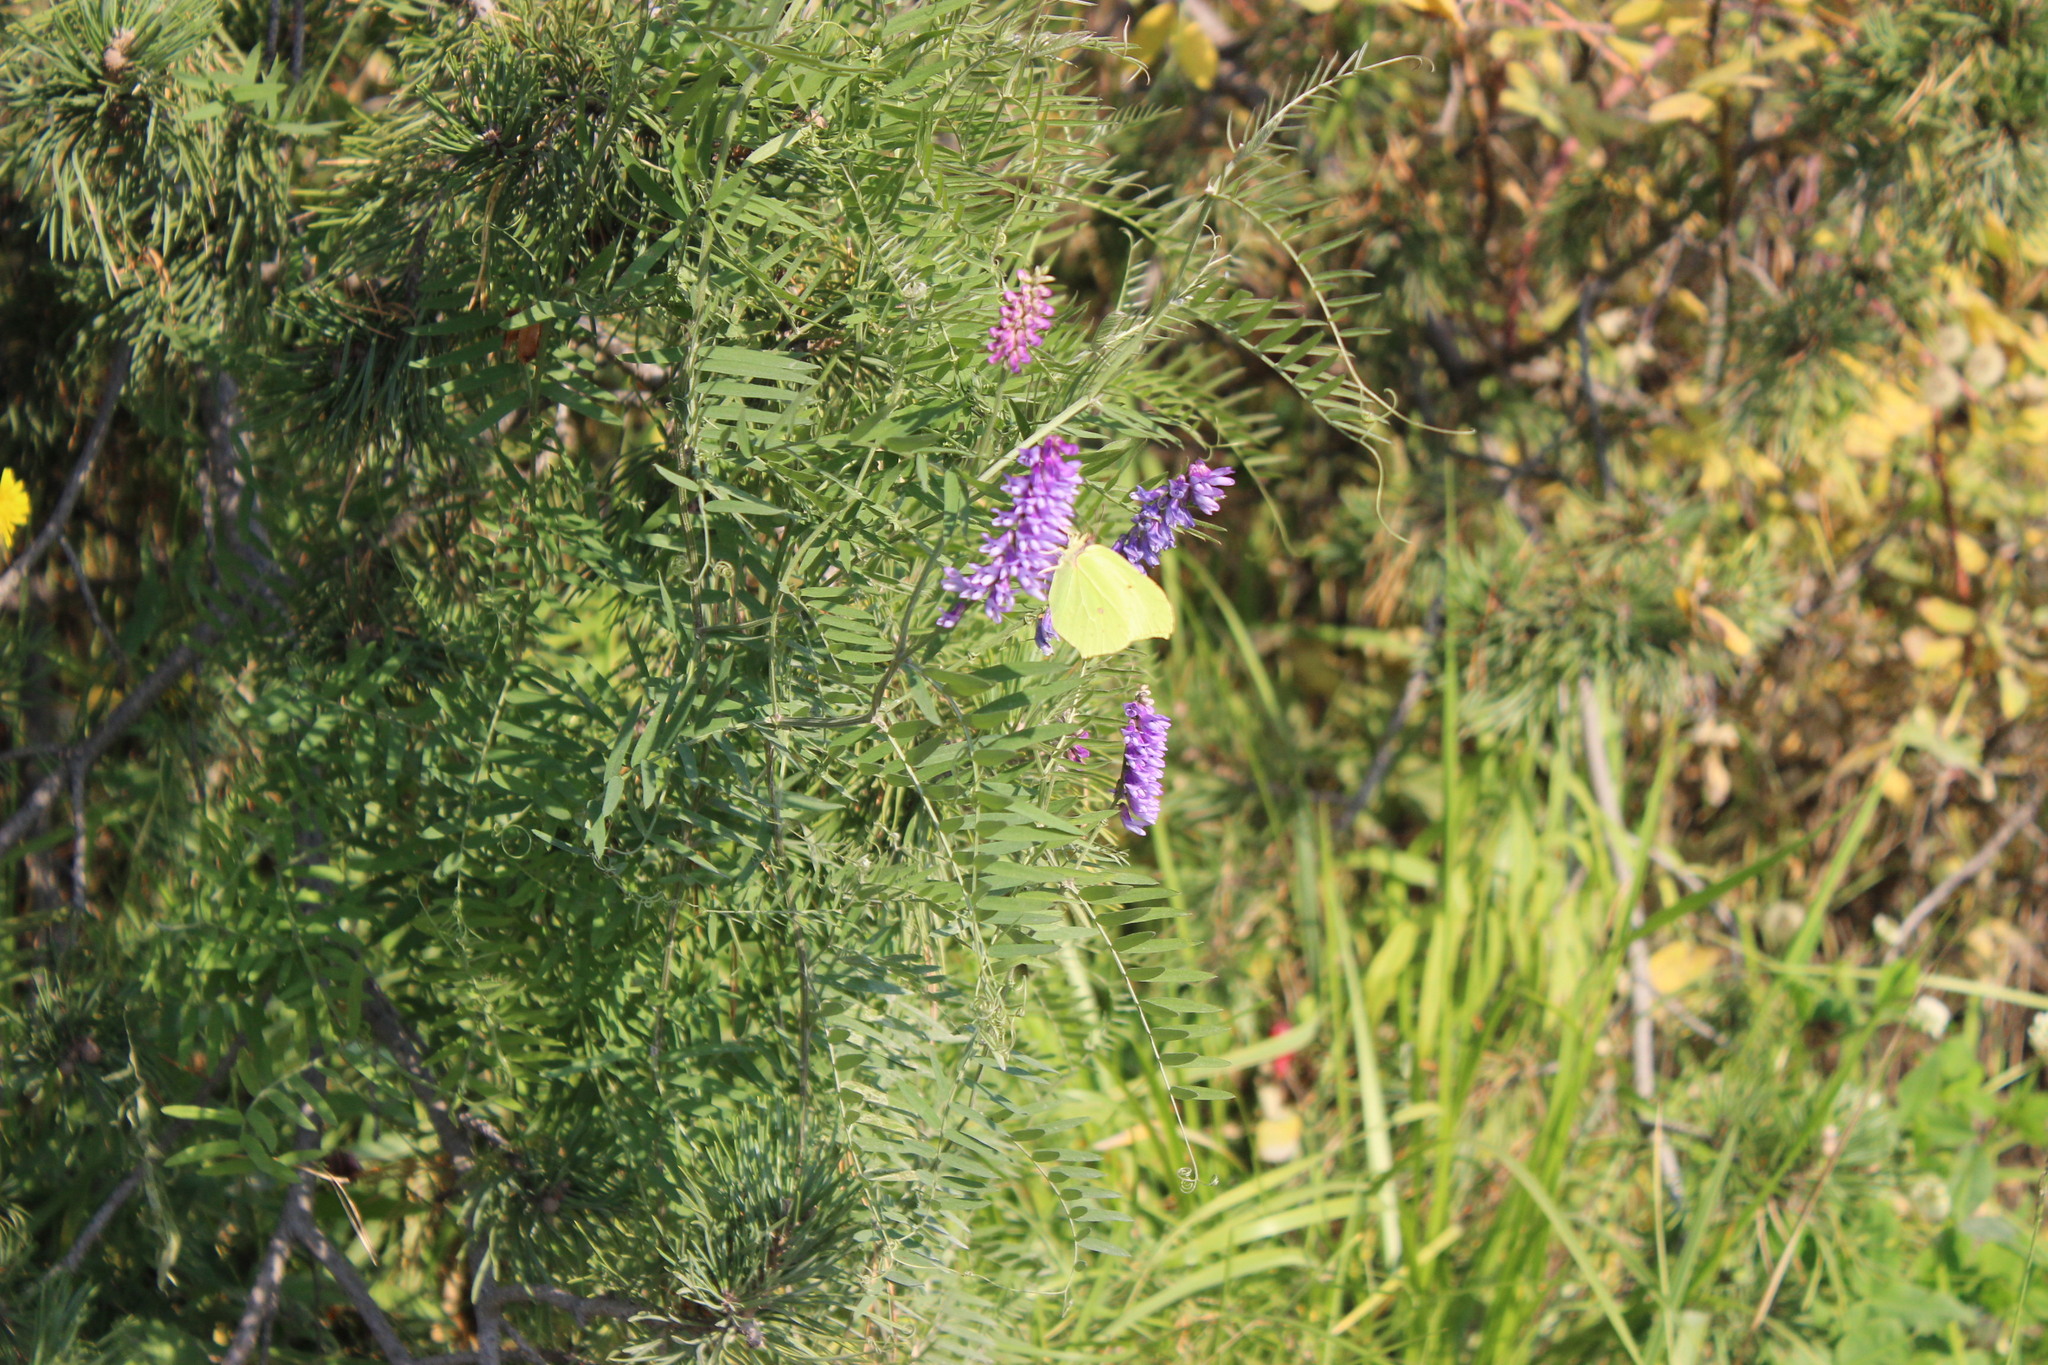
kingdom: Animalia
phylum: Arthropoda
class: Insecta
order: Lepidoptera
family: Pieridae
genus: Gonepteryx
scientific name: Gonepteryx rhamni
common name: Brimstone
